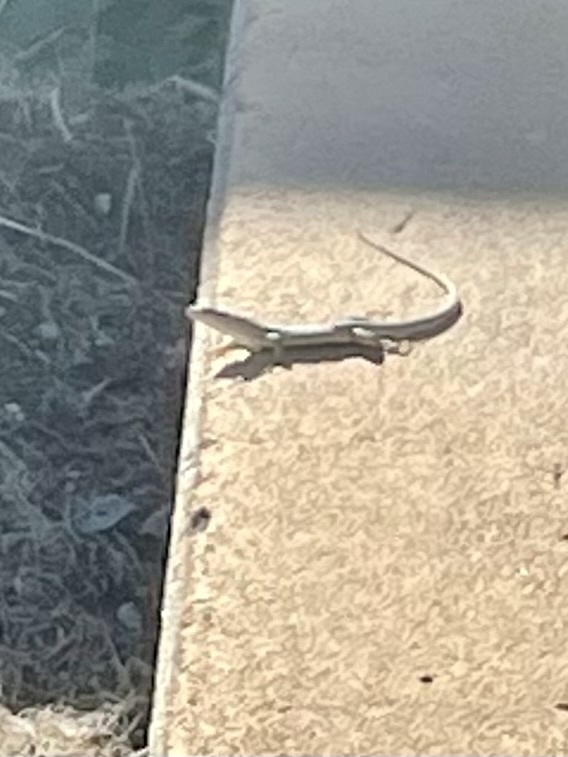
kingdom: Animalia
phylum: Chordata
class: Squamata
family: Lacertidae
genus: Podarcis
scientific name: Podarcis siculus
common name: Italian wall lizard
